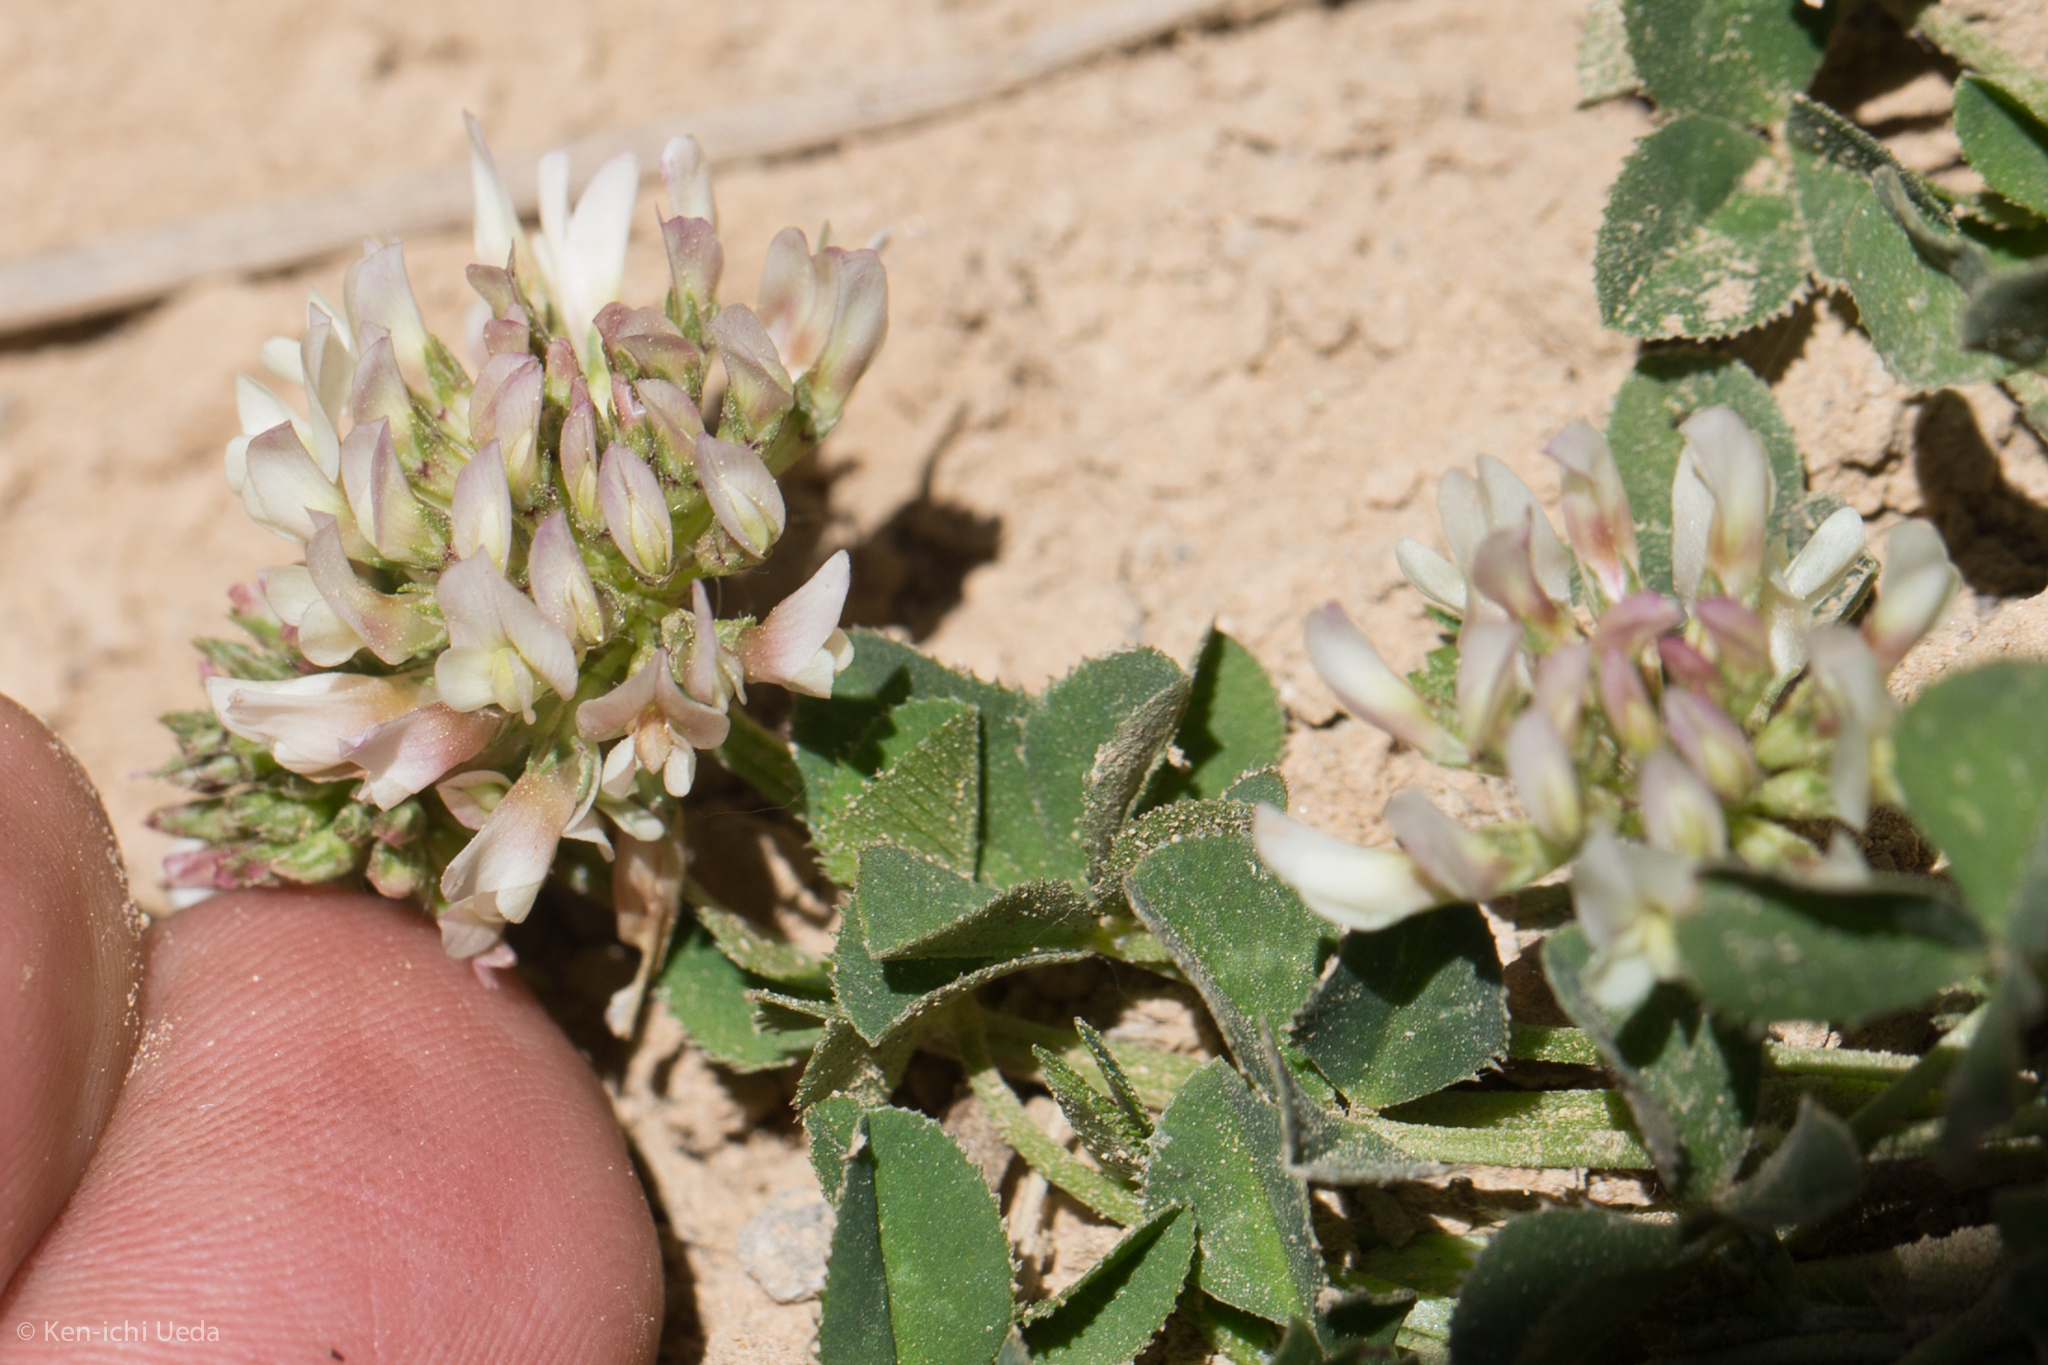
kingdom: Plantae
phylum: Tracheophyta
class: Magnoliopsida
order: Fabales
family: Fabaceae
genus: Trifolium
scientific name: Trifolium repens
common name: White clover
